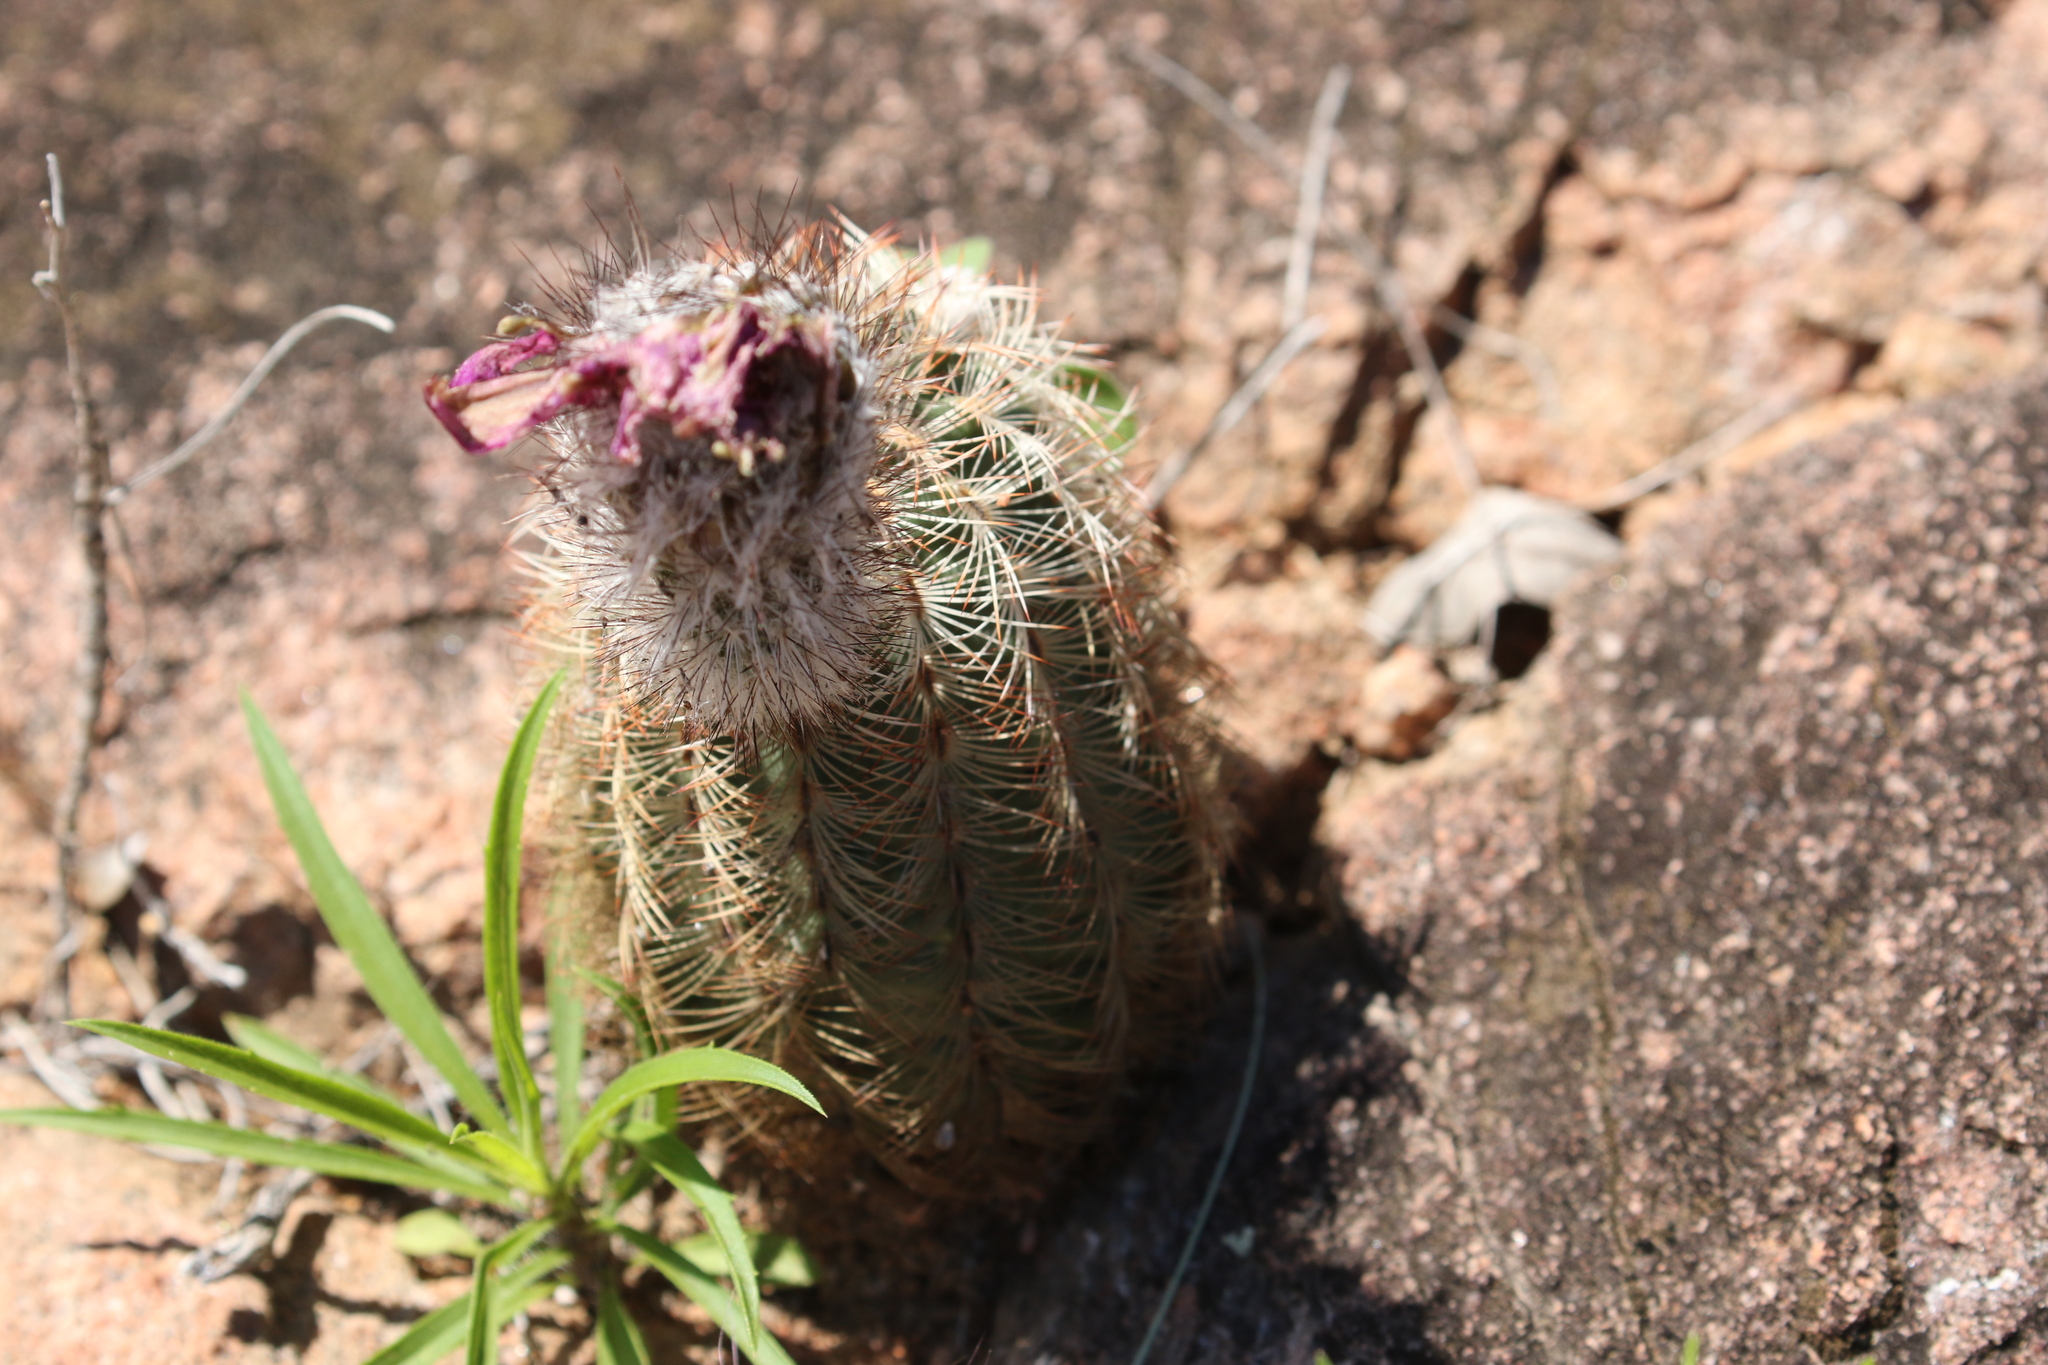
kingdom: Plantae
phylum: Tracheophyta
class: Magnoliopsida
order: Caryophyllales
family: Cactaceae
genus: Echinocereus
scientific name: Echinocereus reichenbachii
